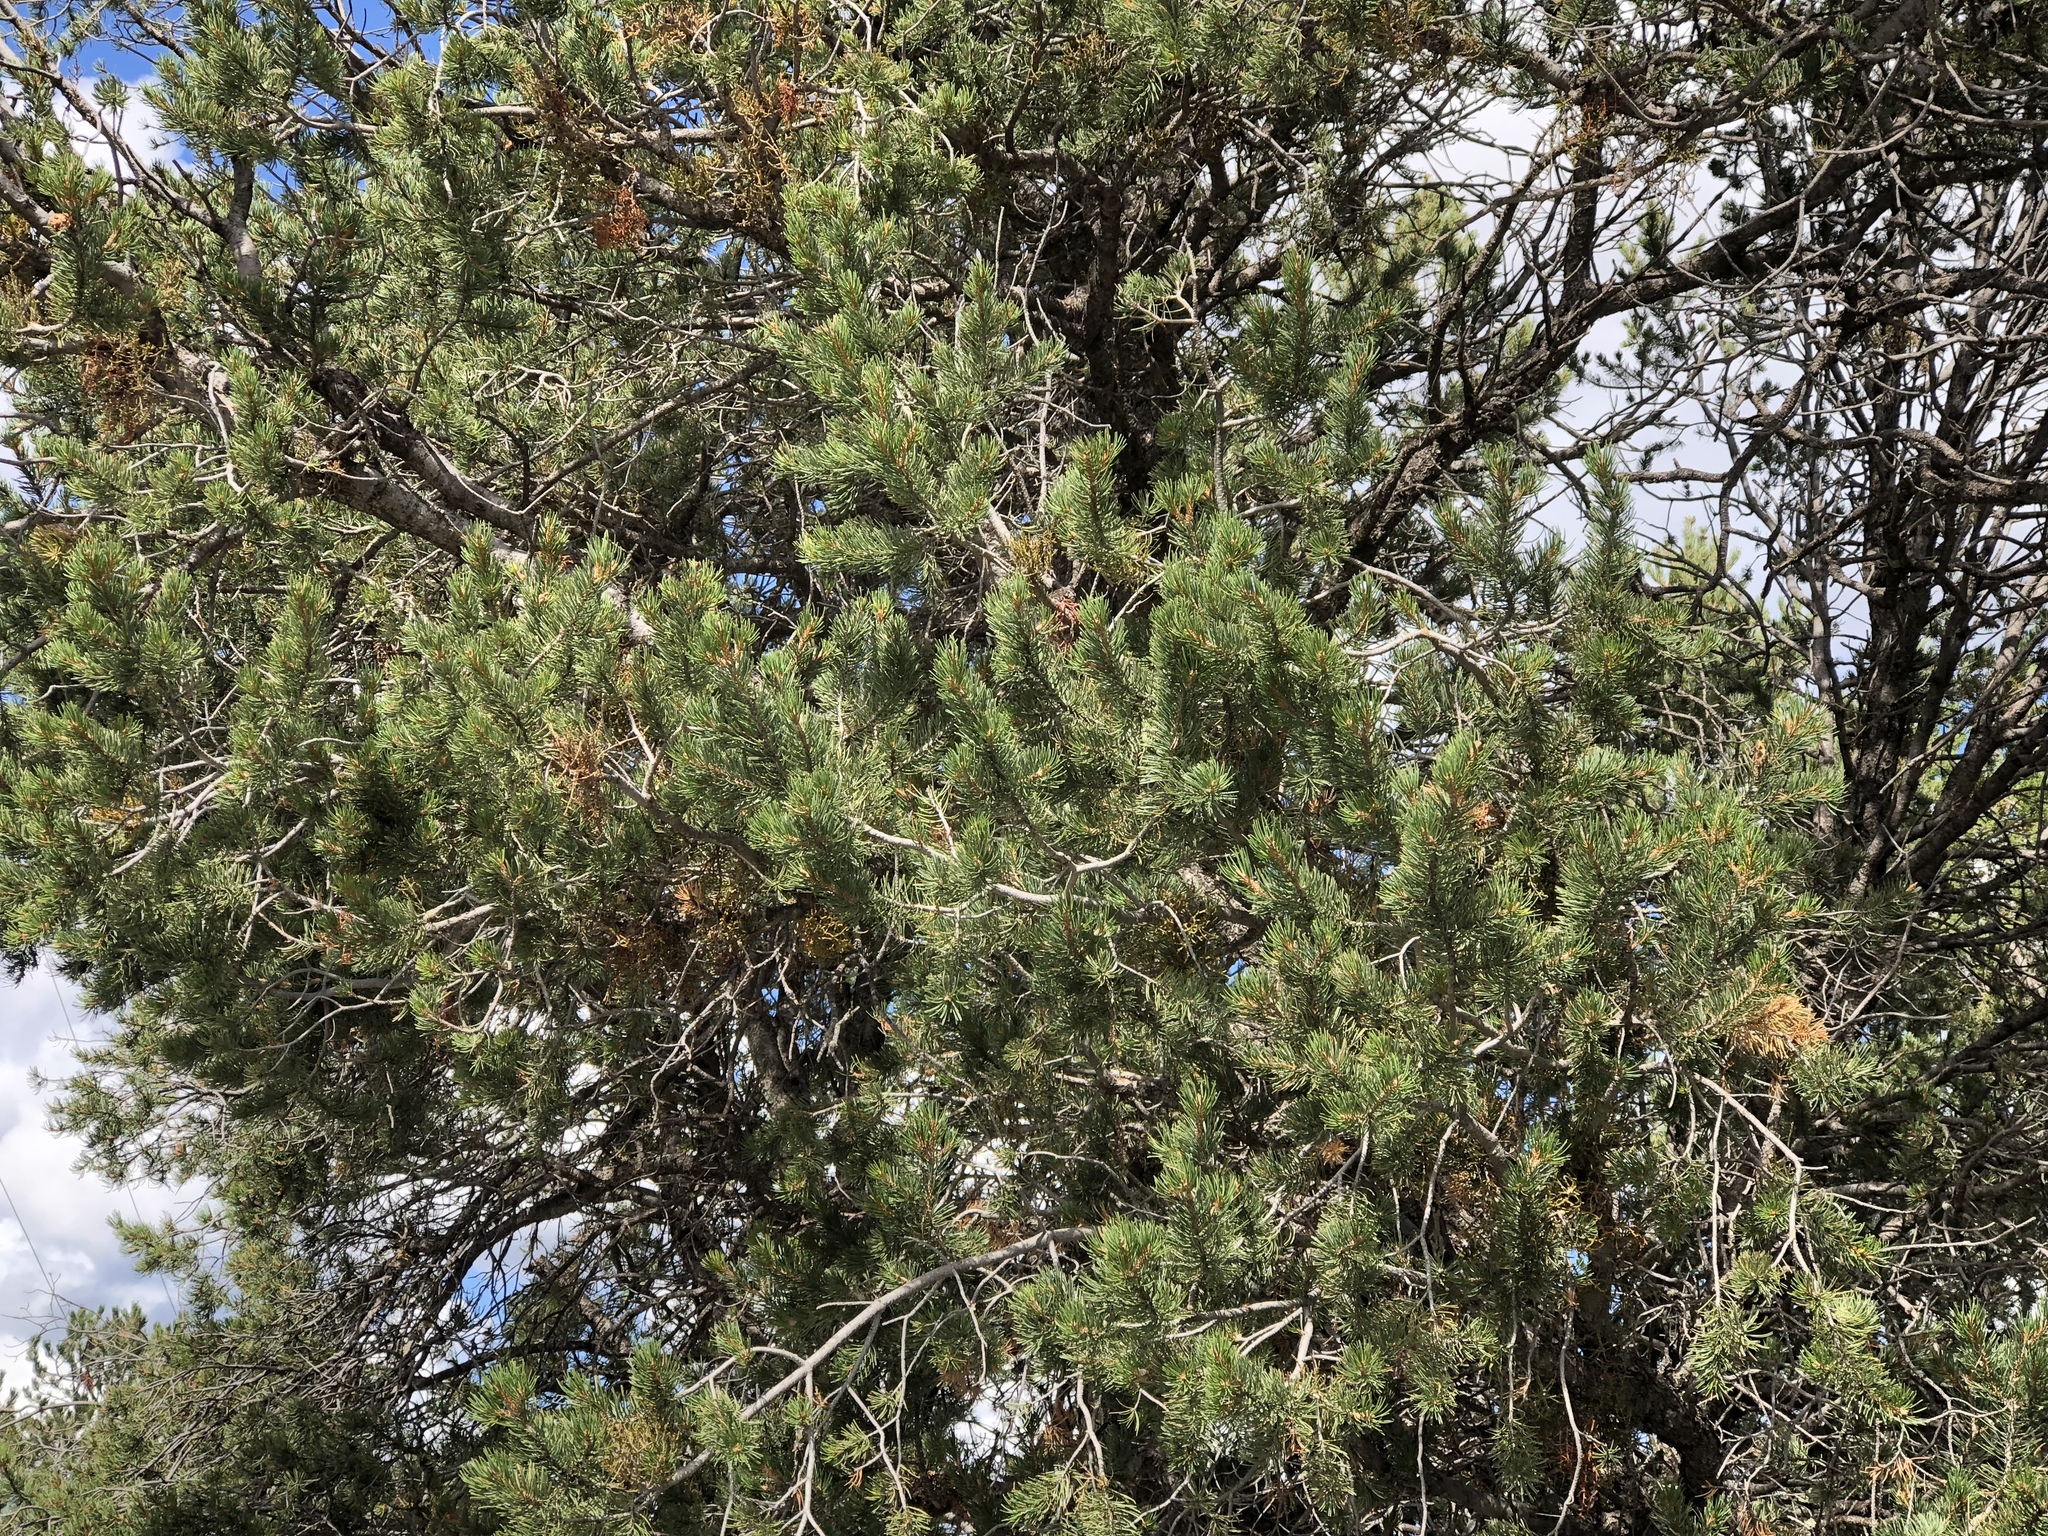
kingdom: Plantae
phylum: Tracheophyta
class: Pinopsida
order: Pinales
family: Pinaceae
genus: Pinus
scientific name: Pinus edulis
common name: Colorado pinyon
